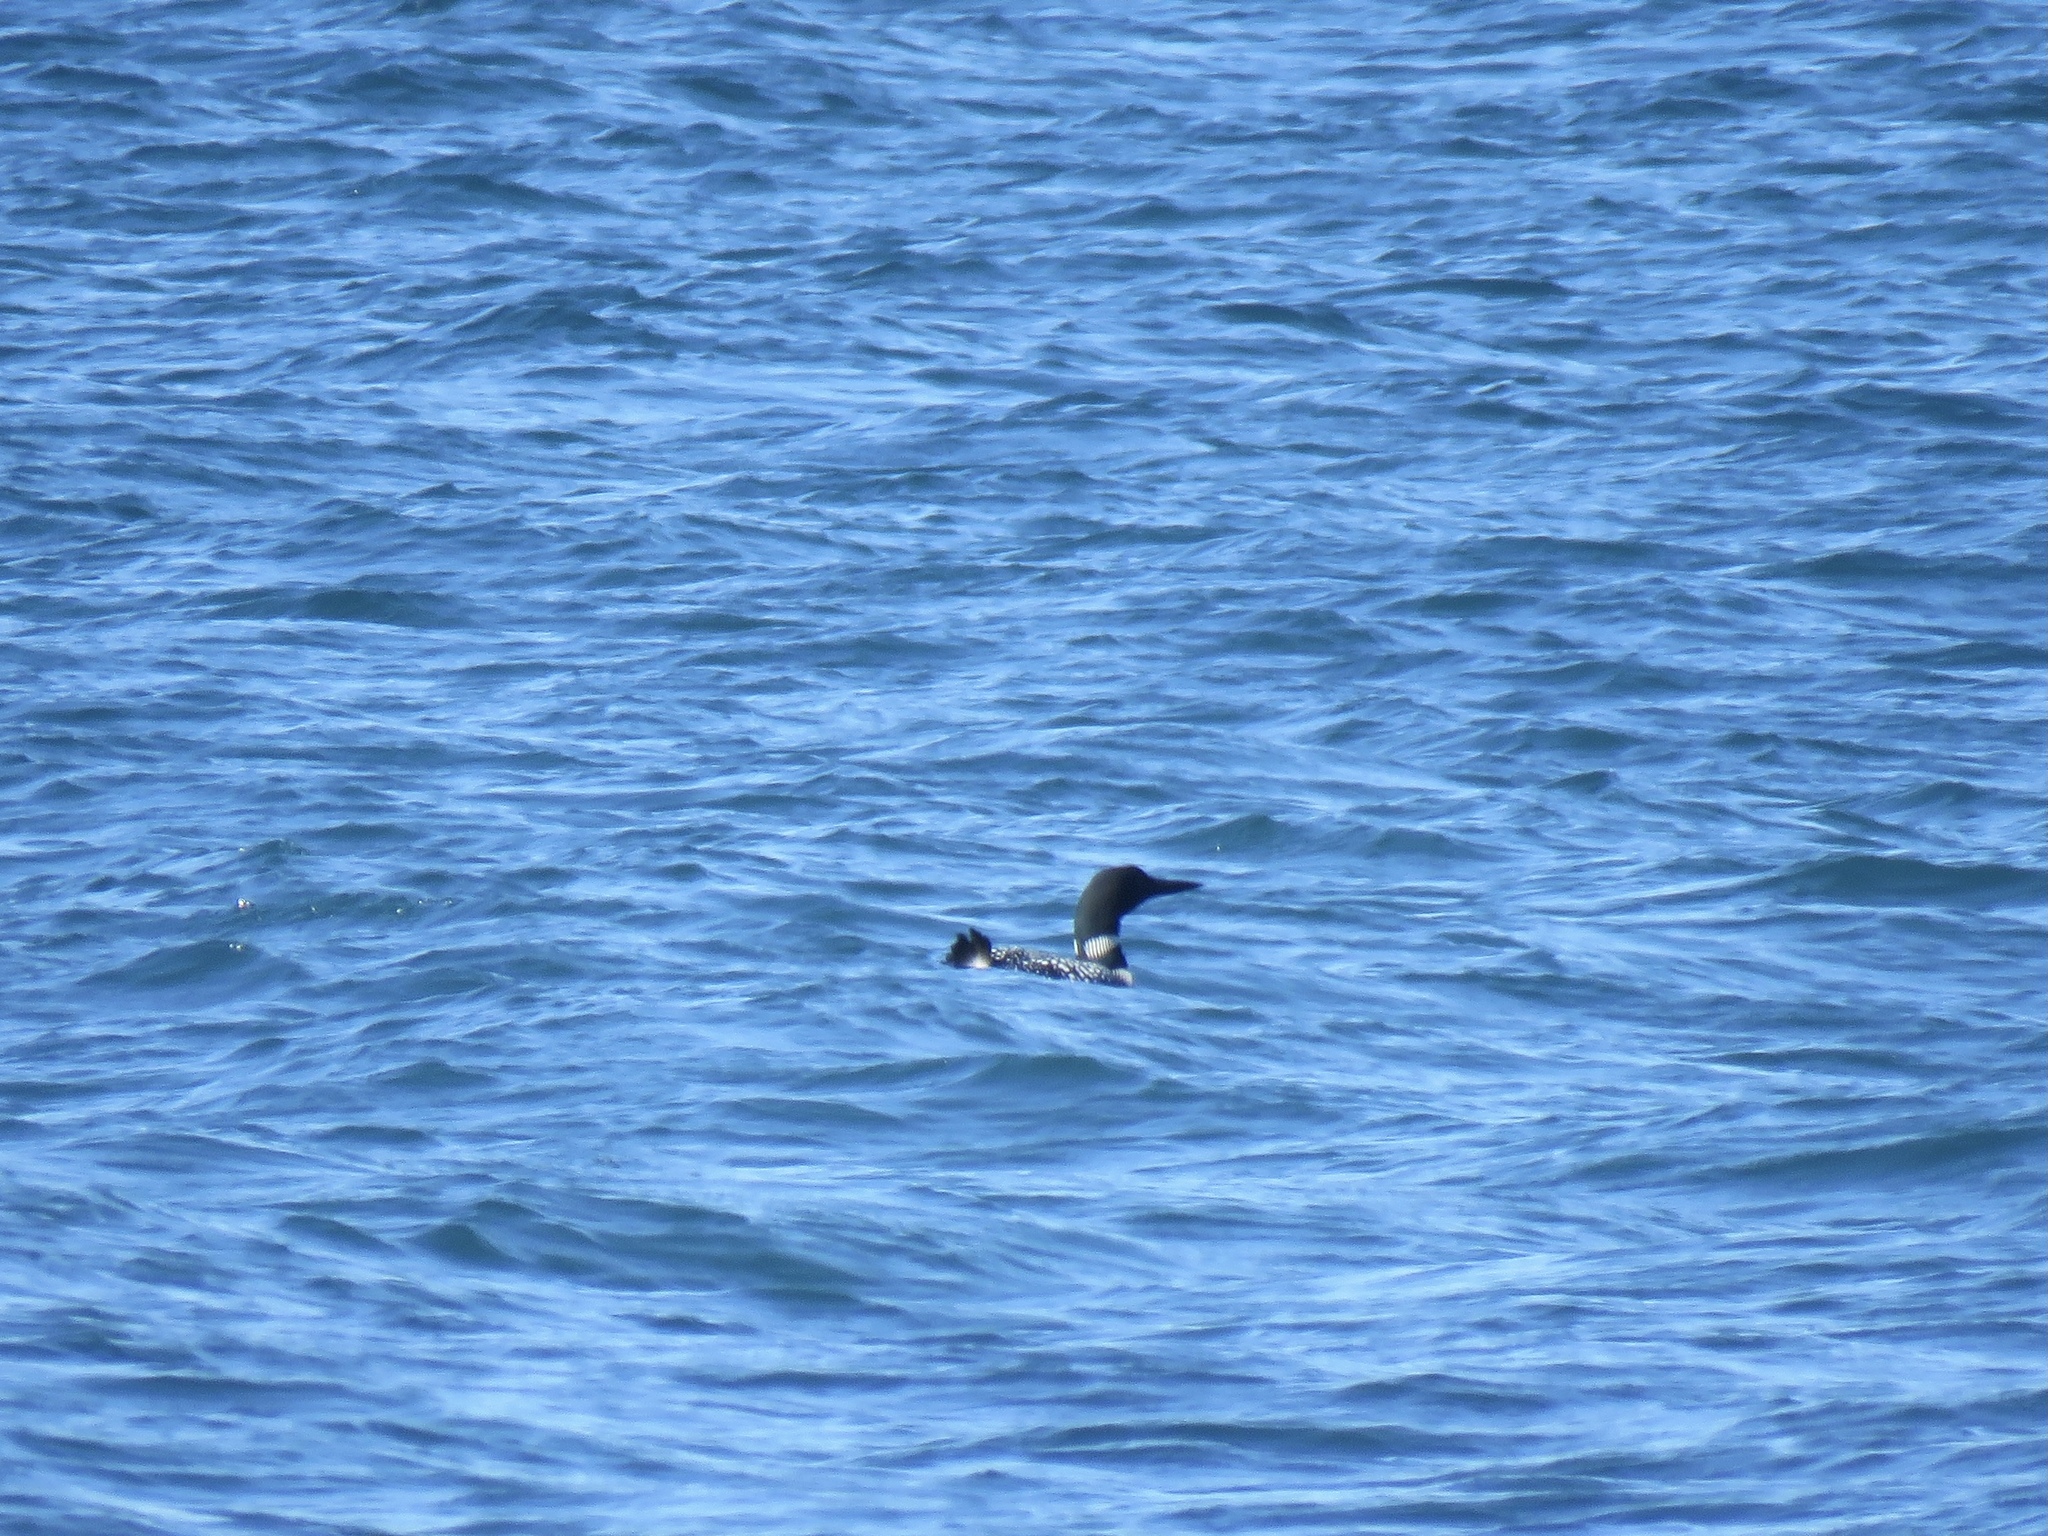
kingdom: Animalia
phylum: Chordata
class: Aves
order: Gaviiformes
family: Gaviidae
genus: Gavia
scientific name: Gavia immer
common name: Common loon
